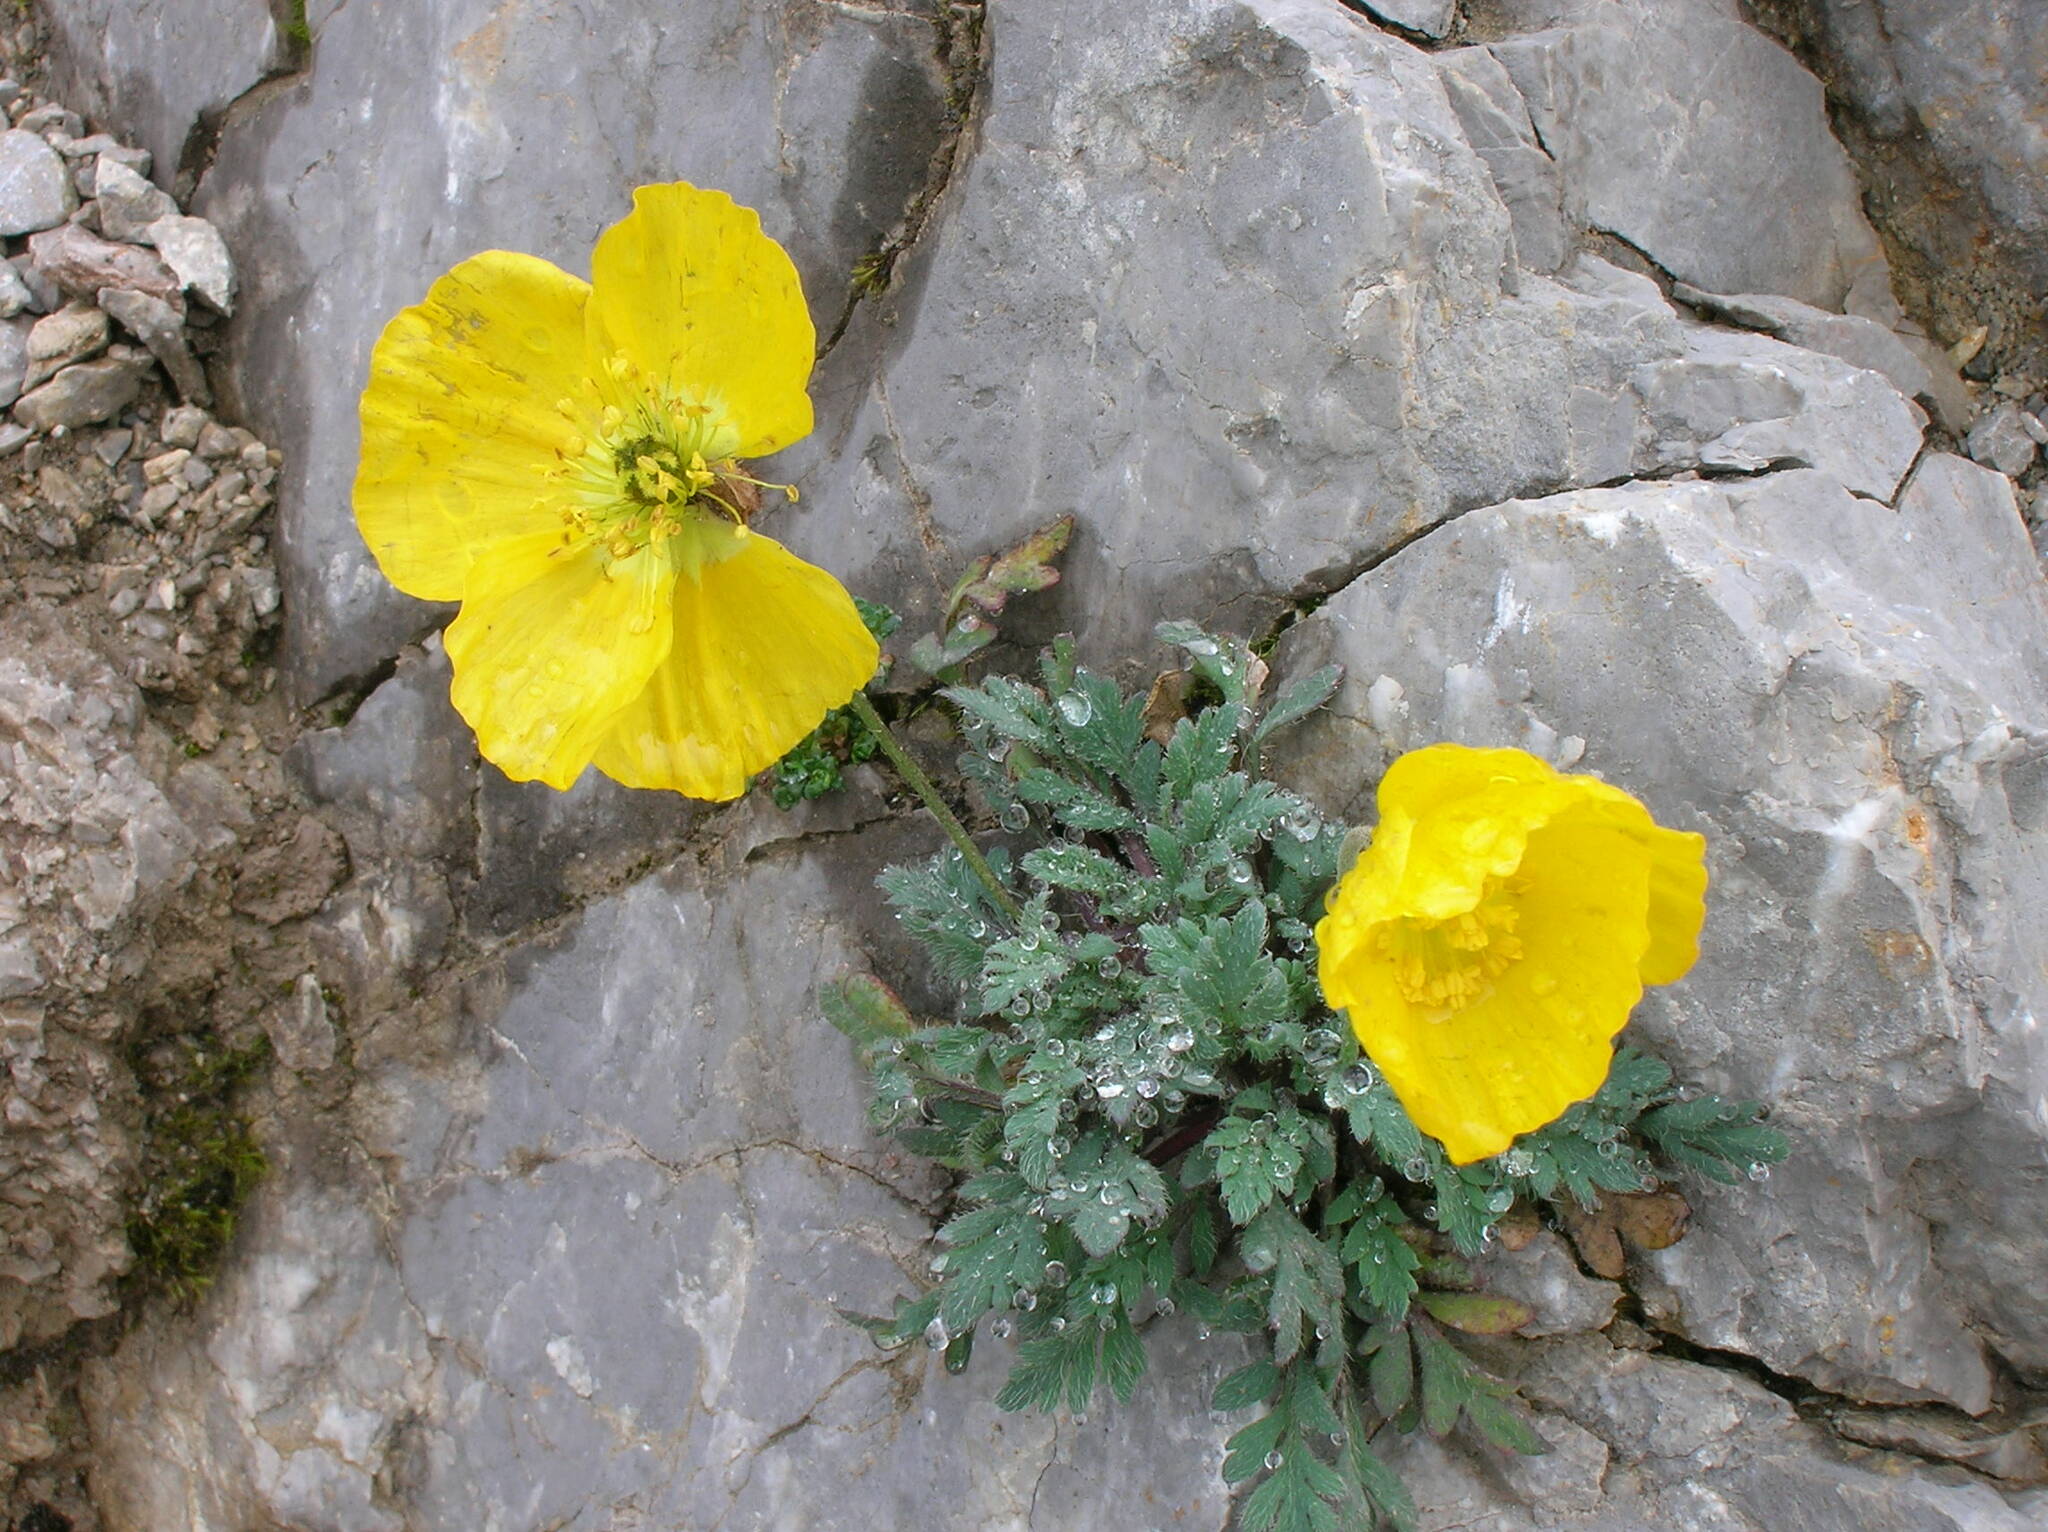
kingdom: Plantae
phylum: Tracheophyta
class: Magnoliopsida
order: Ranunculales
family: Papaveraceae
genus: Papaver
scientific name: Papaver alpinum
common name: Austrian poppy
